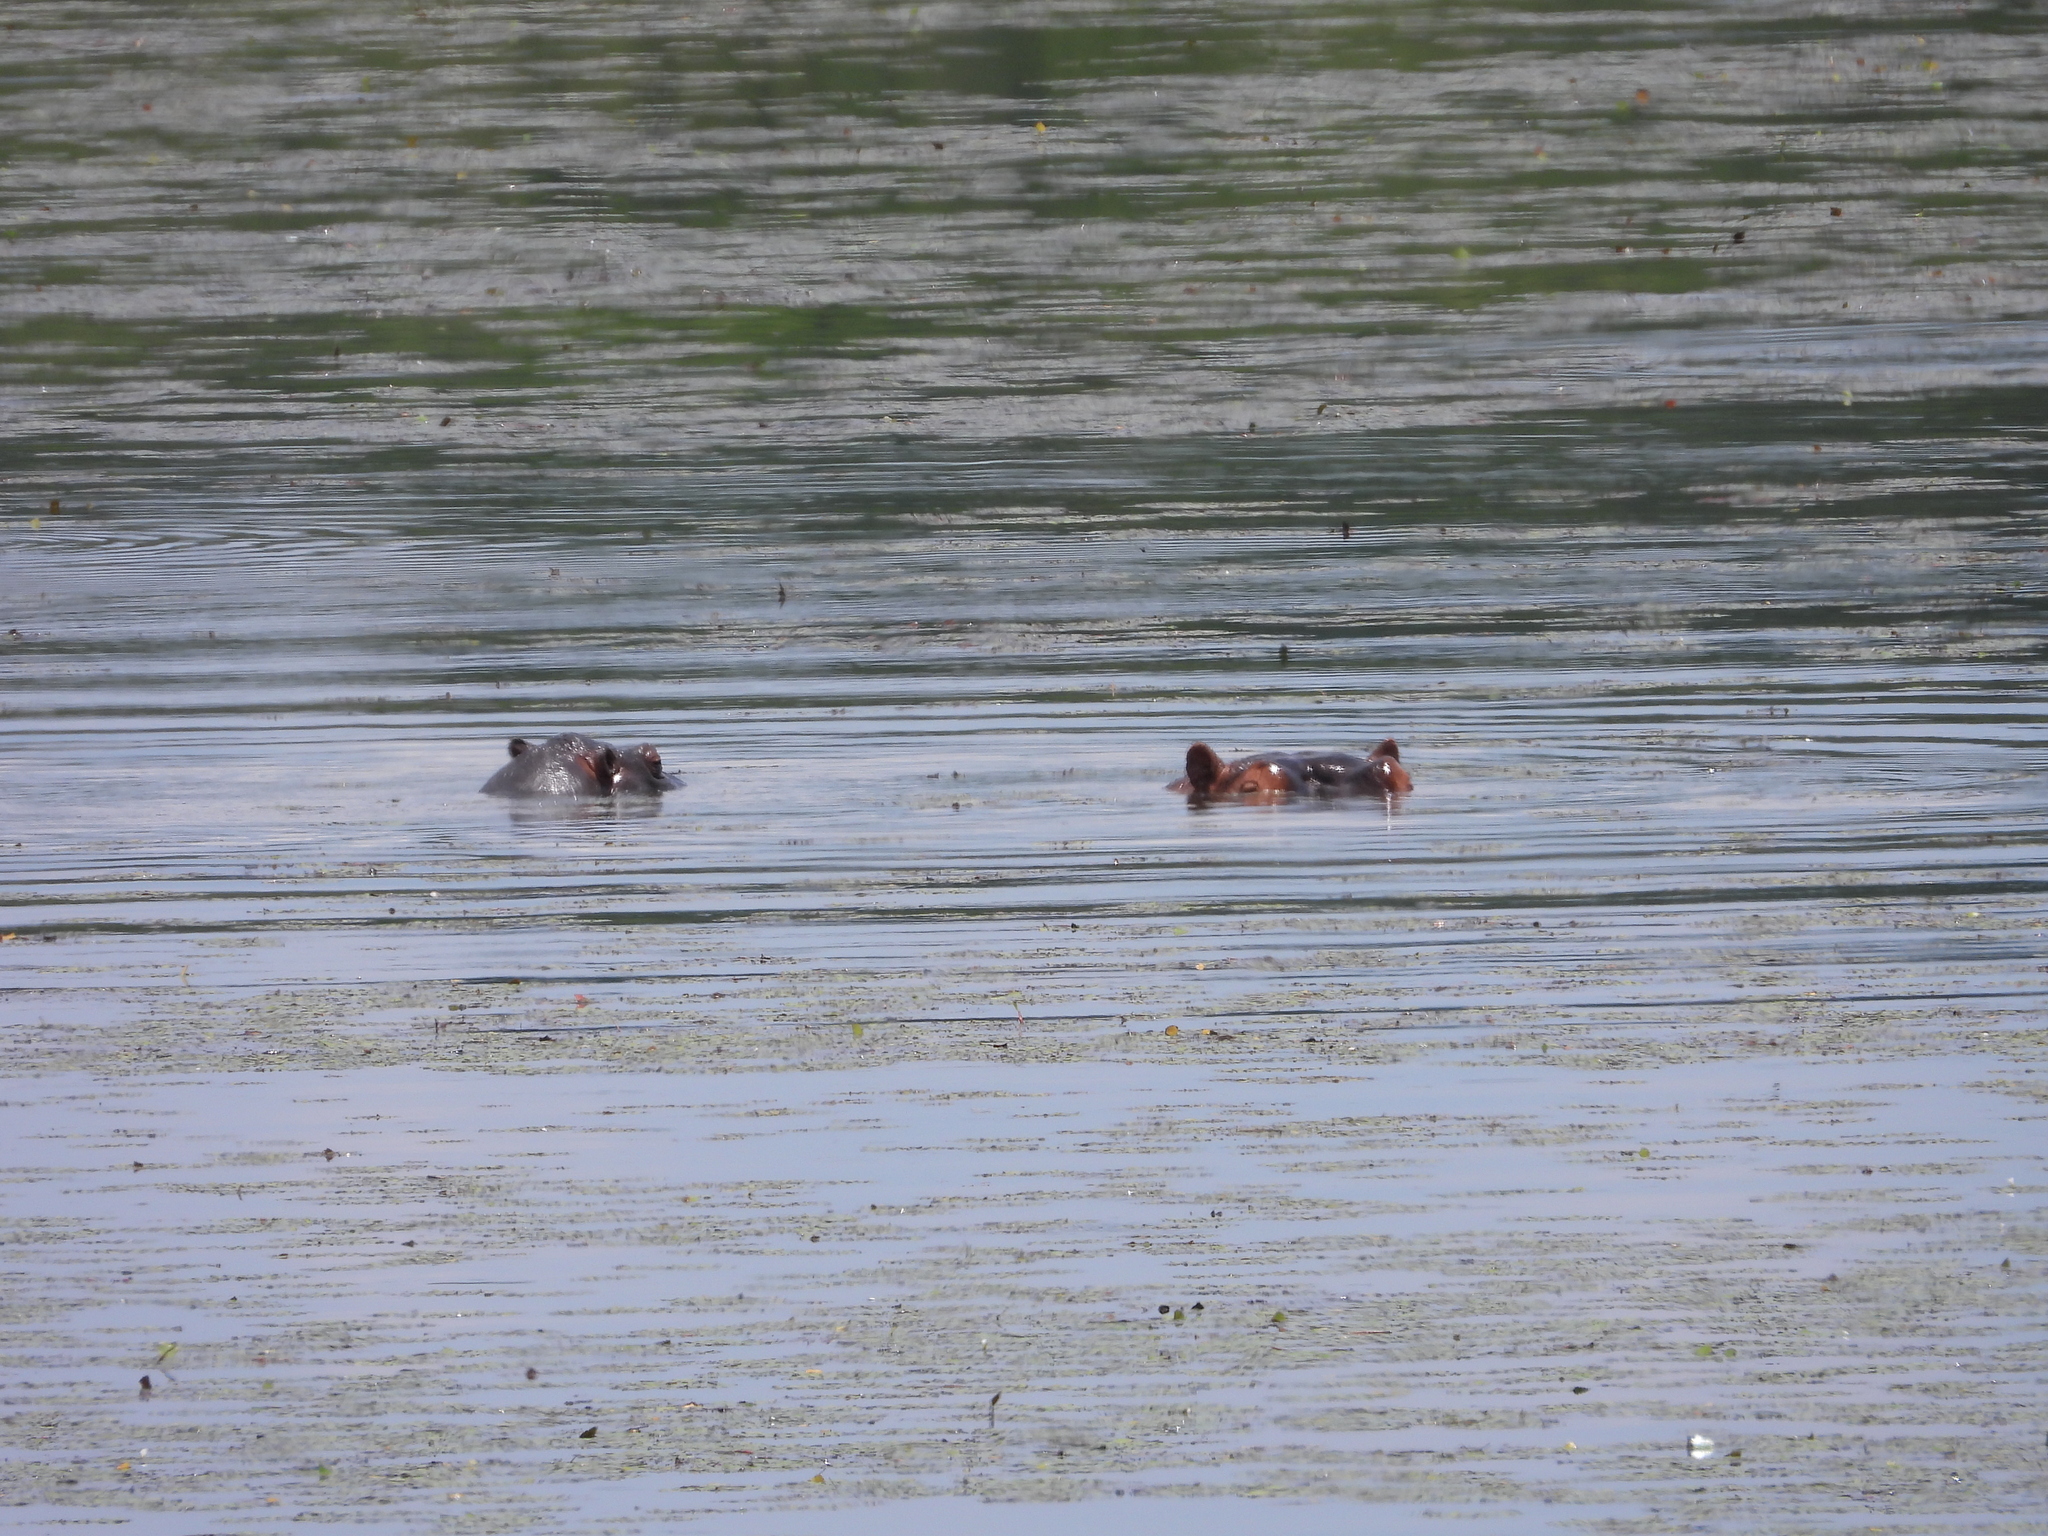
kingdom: Animalia
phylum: Chordata
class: Mammalia
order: Artiodactyla
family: Hippopotamidae
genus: Hippopotamus
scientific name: Hippopotamus amphibius
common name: Common hippopotamus
